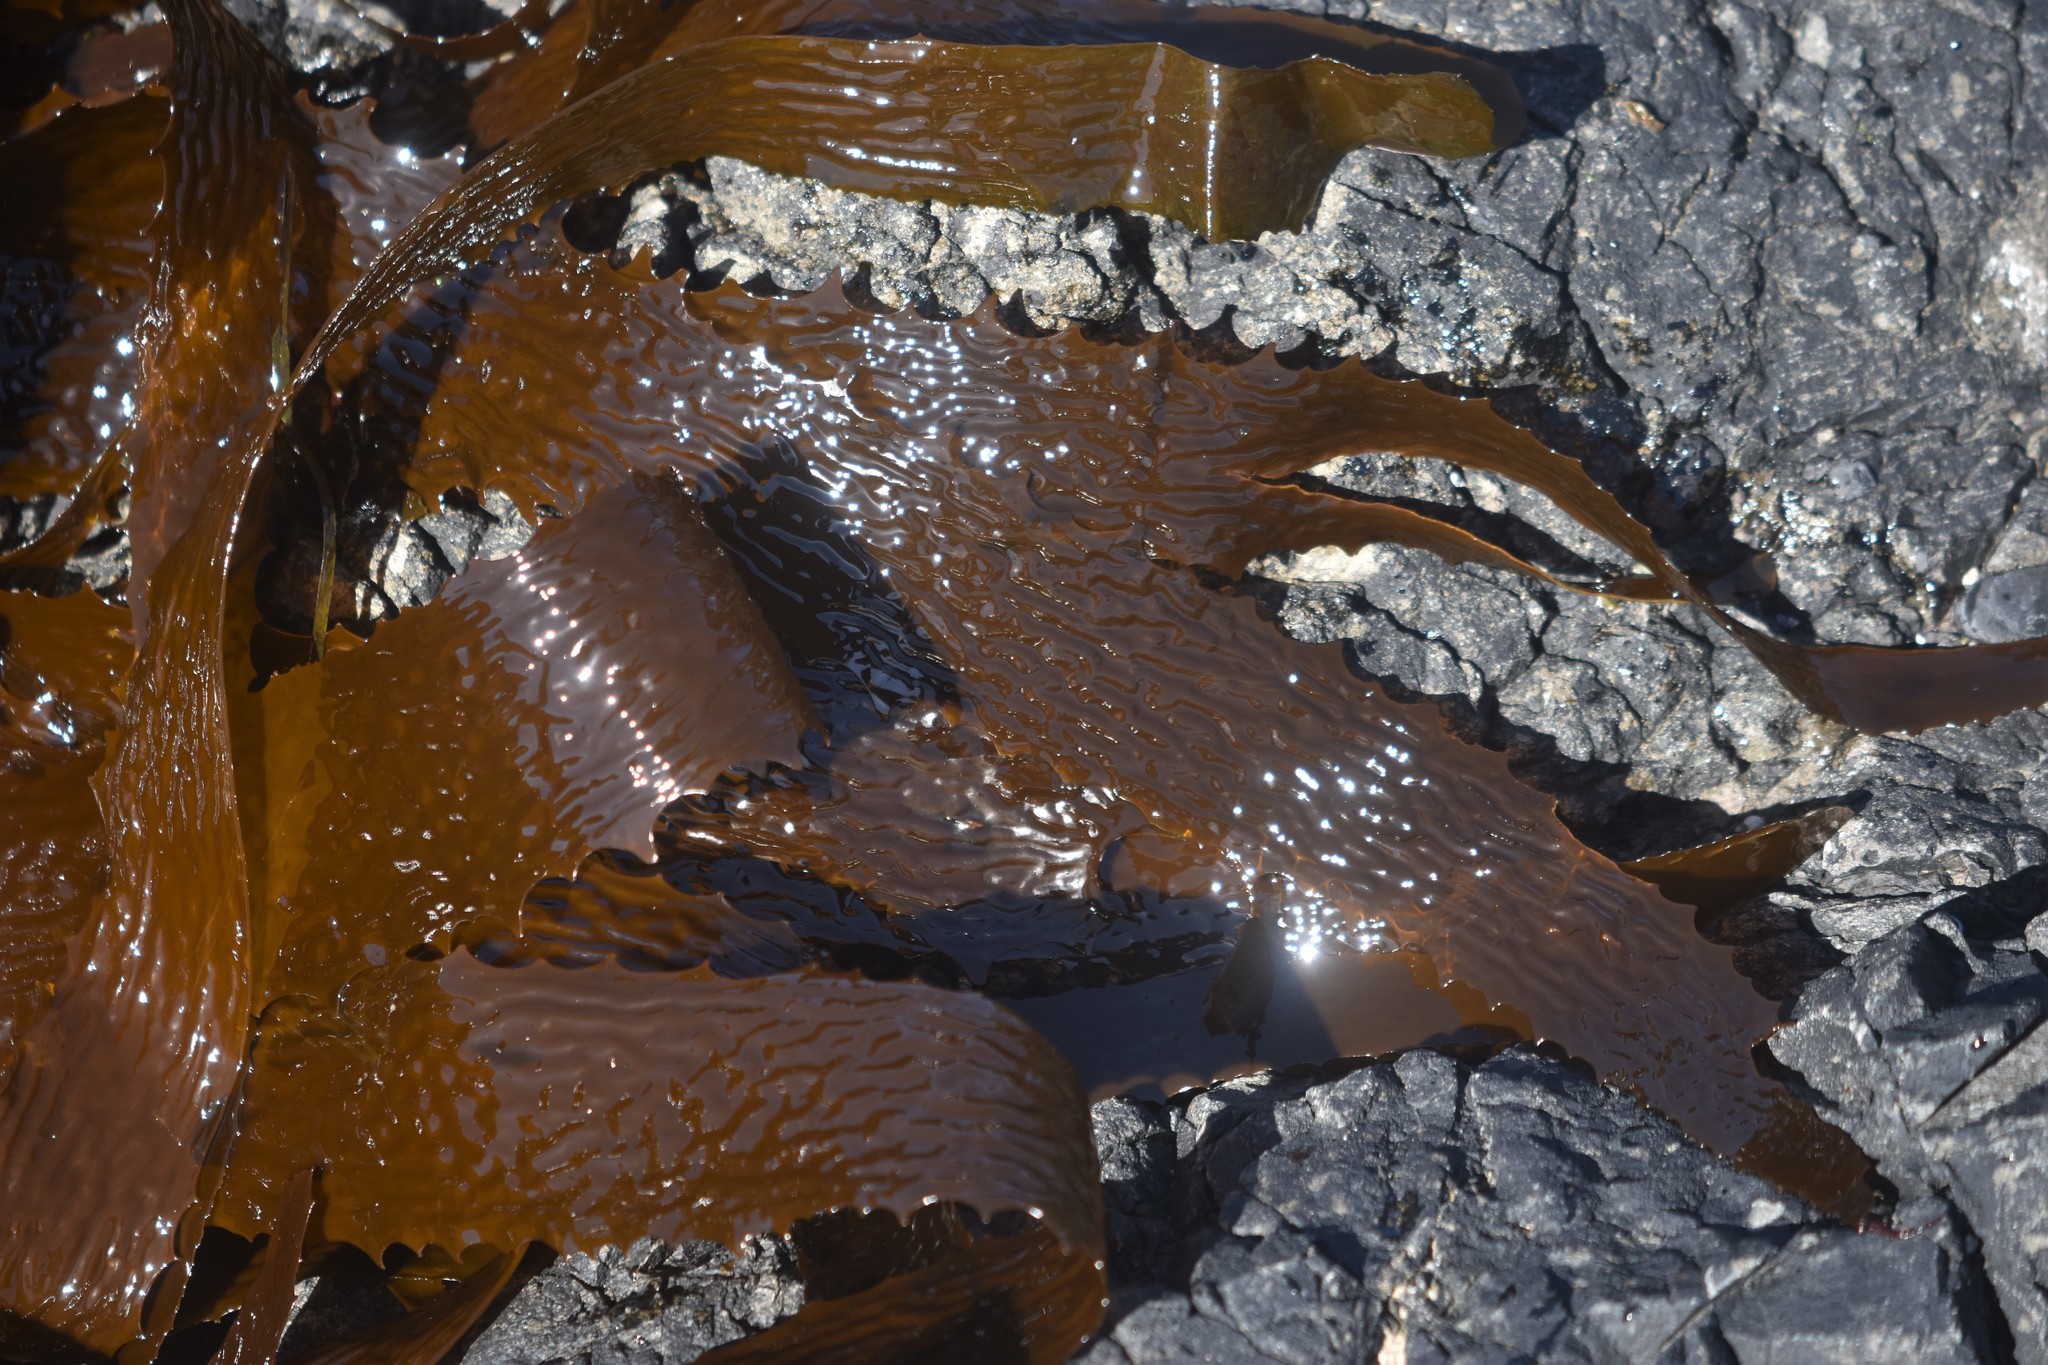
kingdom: Chromista
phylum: Ochrophyta
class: Phaeophyceae
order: Laminariales
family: Lessoniaceae
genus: Eisenia
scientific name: Eisenia arborea
